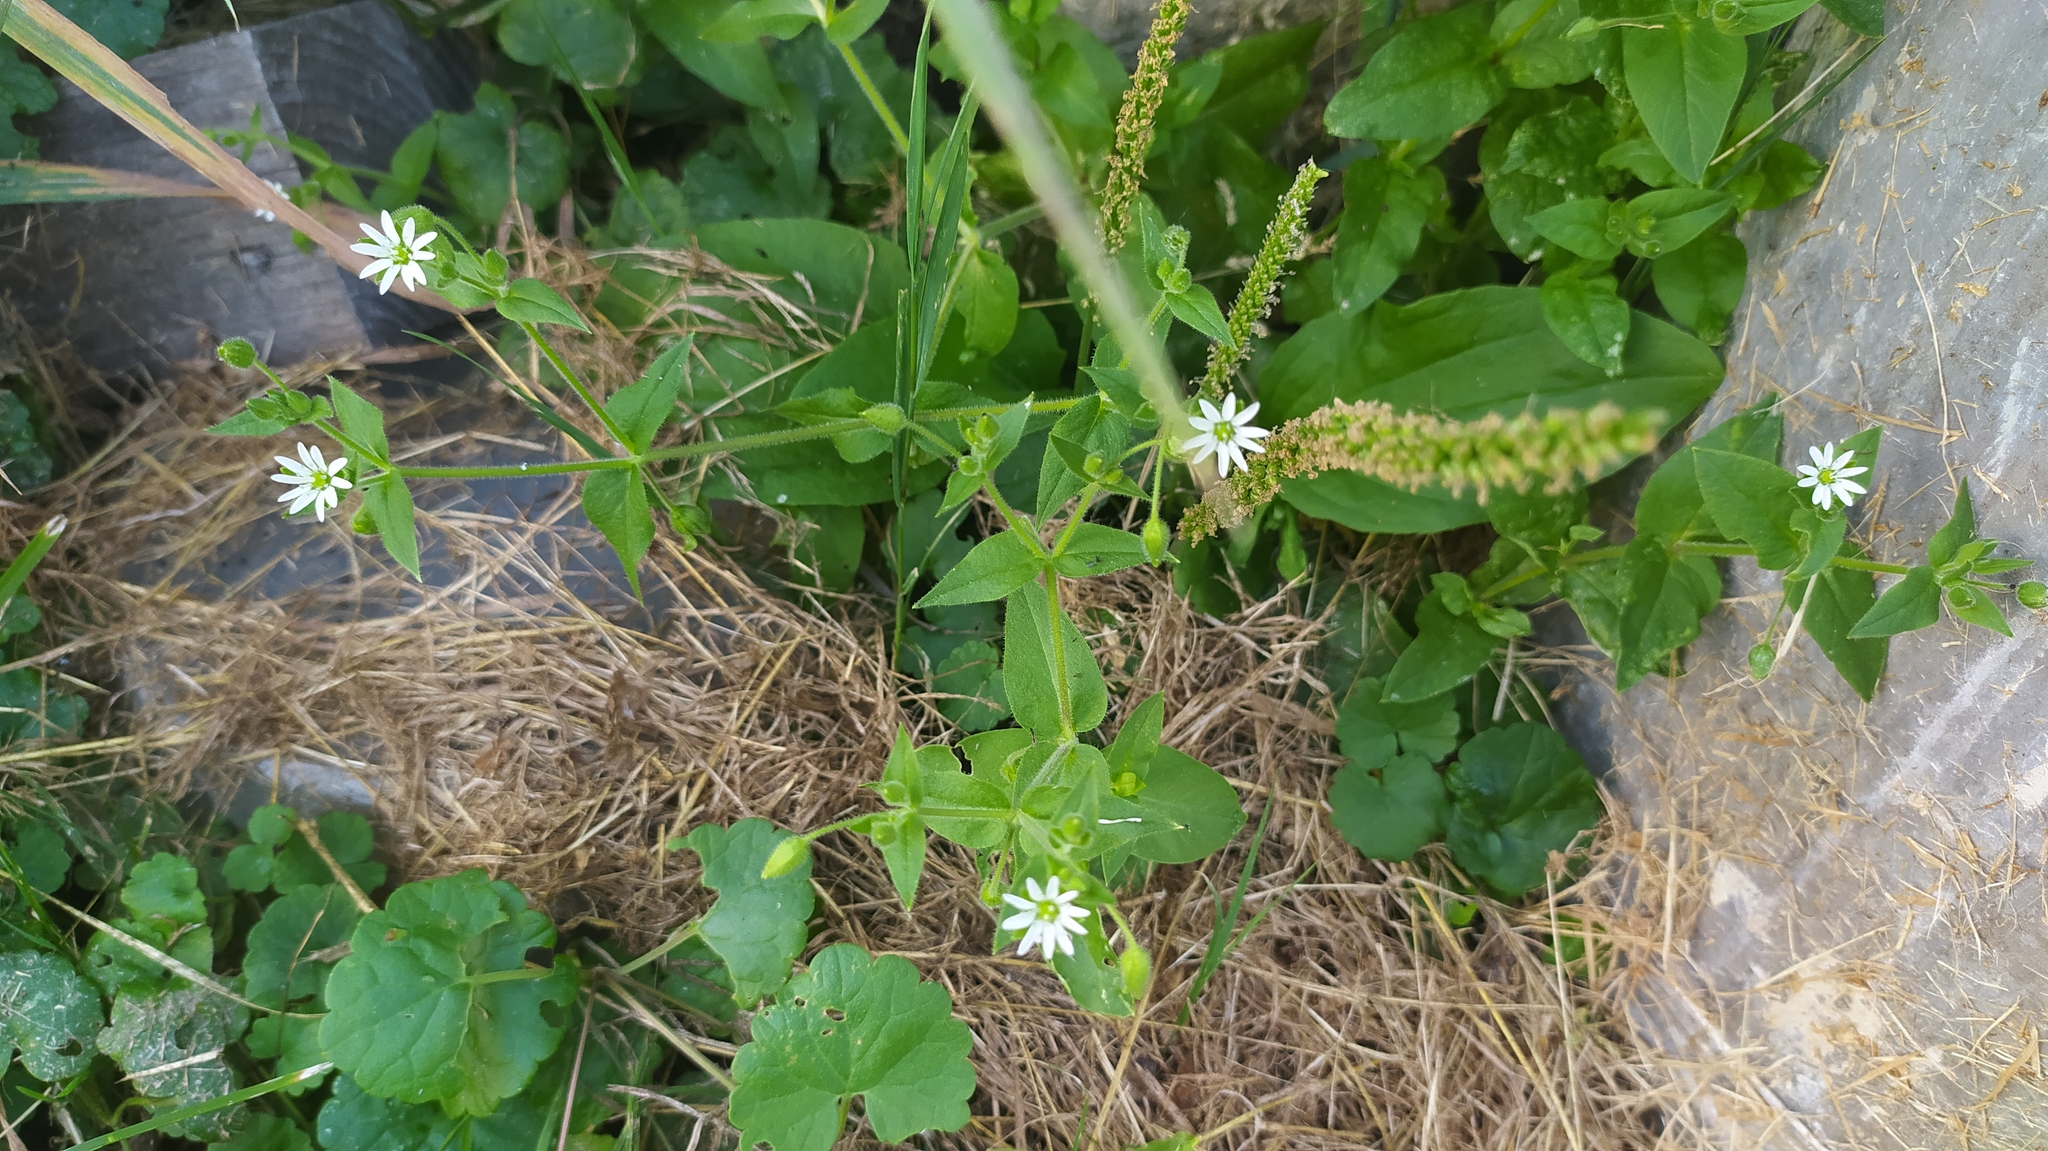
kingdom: Plantae
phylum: Tracheophyta
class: Magnoliopsida
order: Caryophyllales
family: Caryophyllaceae
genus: Stellaria
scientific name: Stellaria aquatica
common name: Water chickweed
